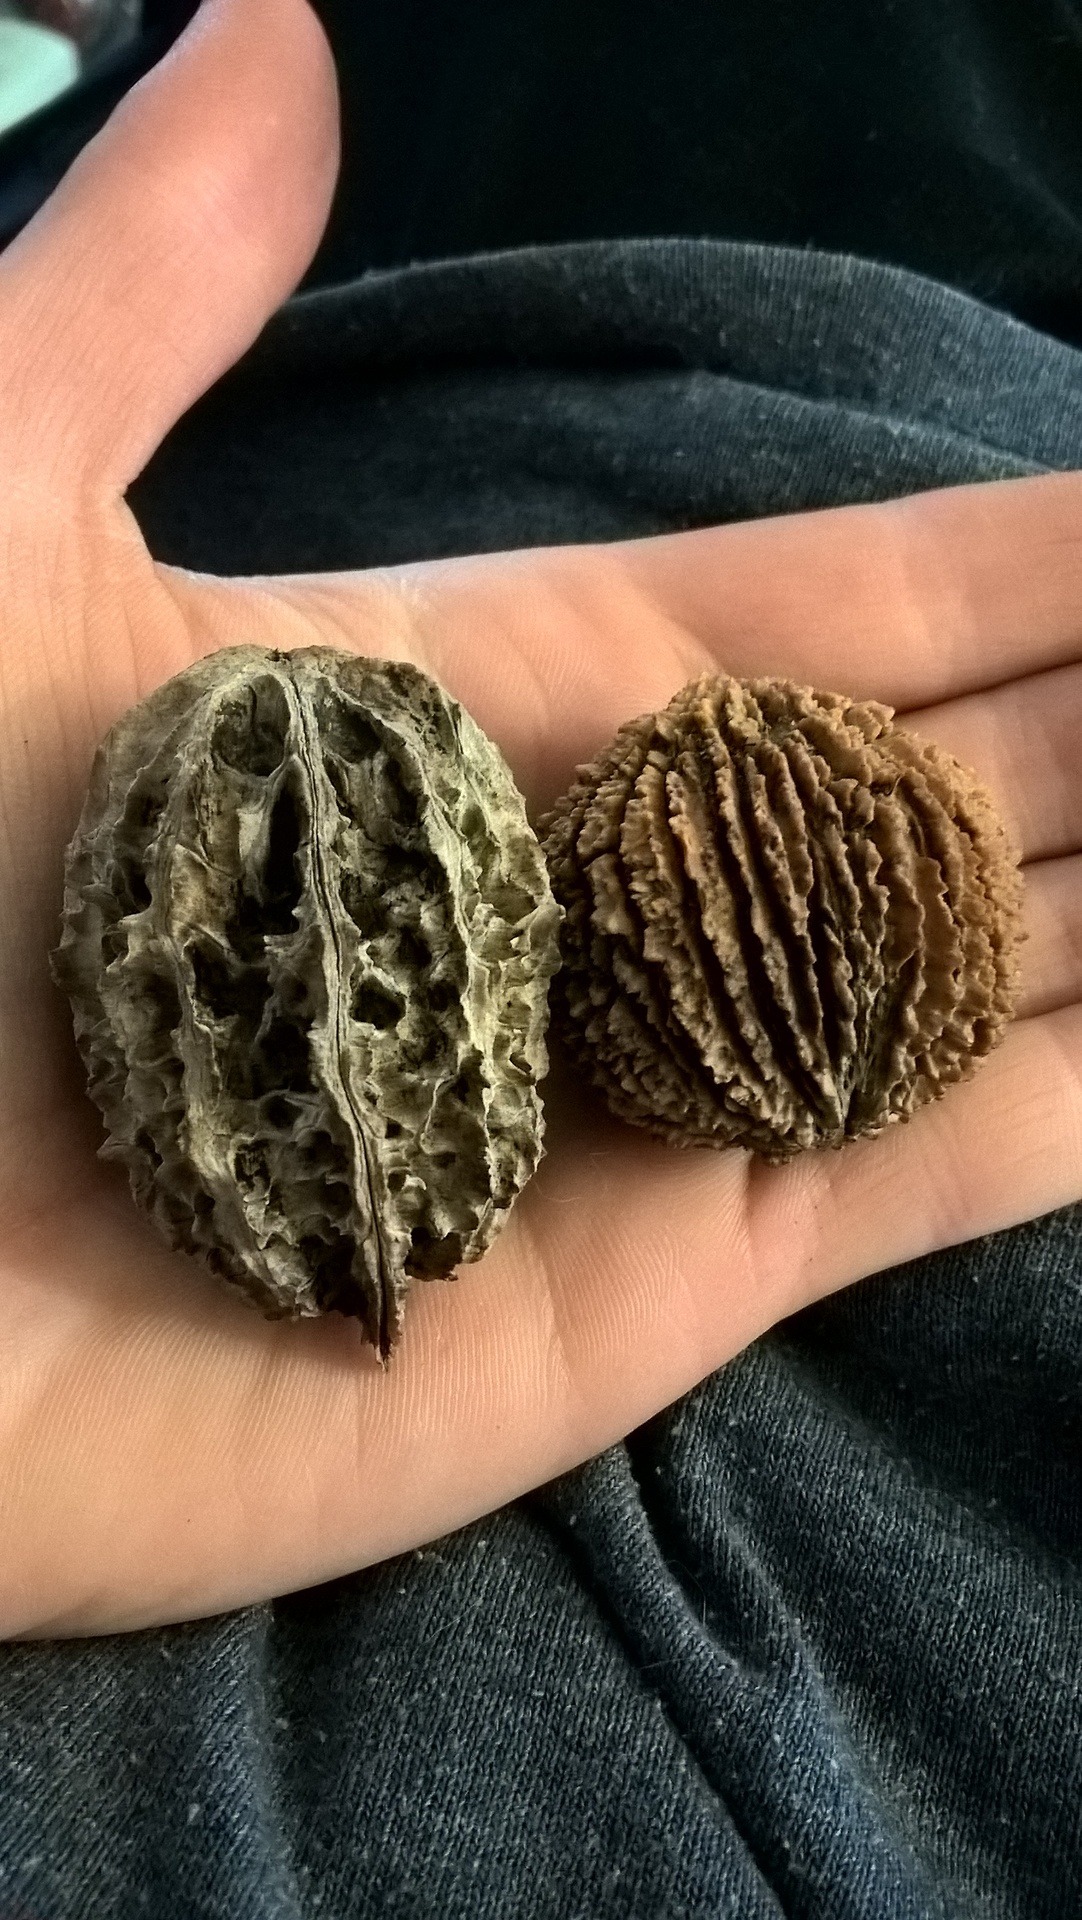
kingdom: Plantae
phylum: Tracheophyta
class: Magnoliopsida
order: Fagales
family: Juglandaceae
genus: Juglans
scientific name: Juglans cinerea
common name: Butternut
